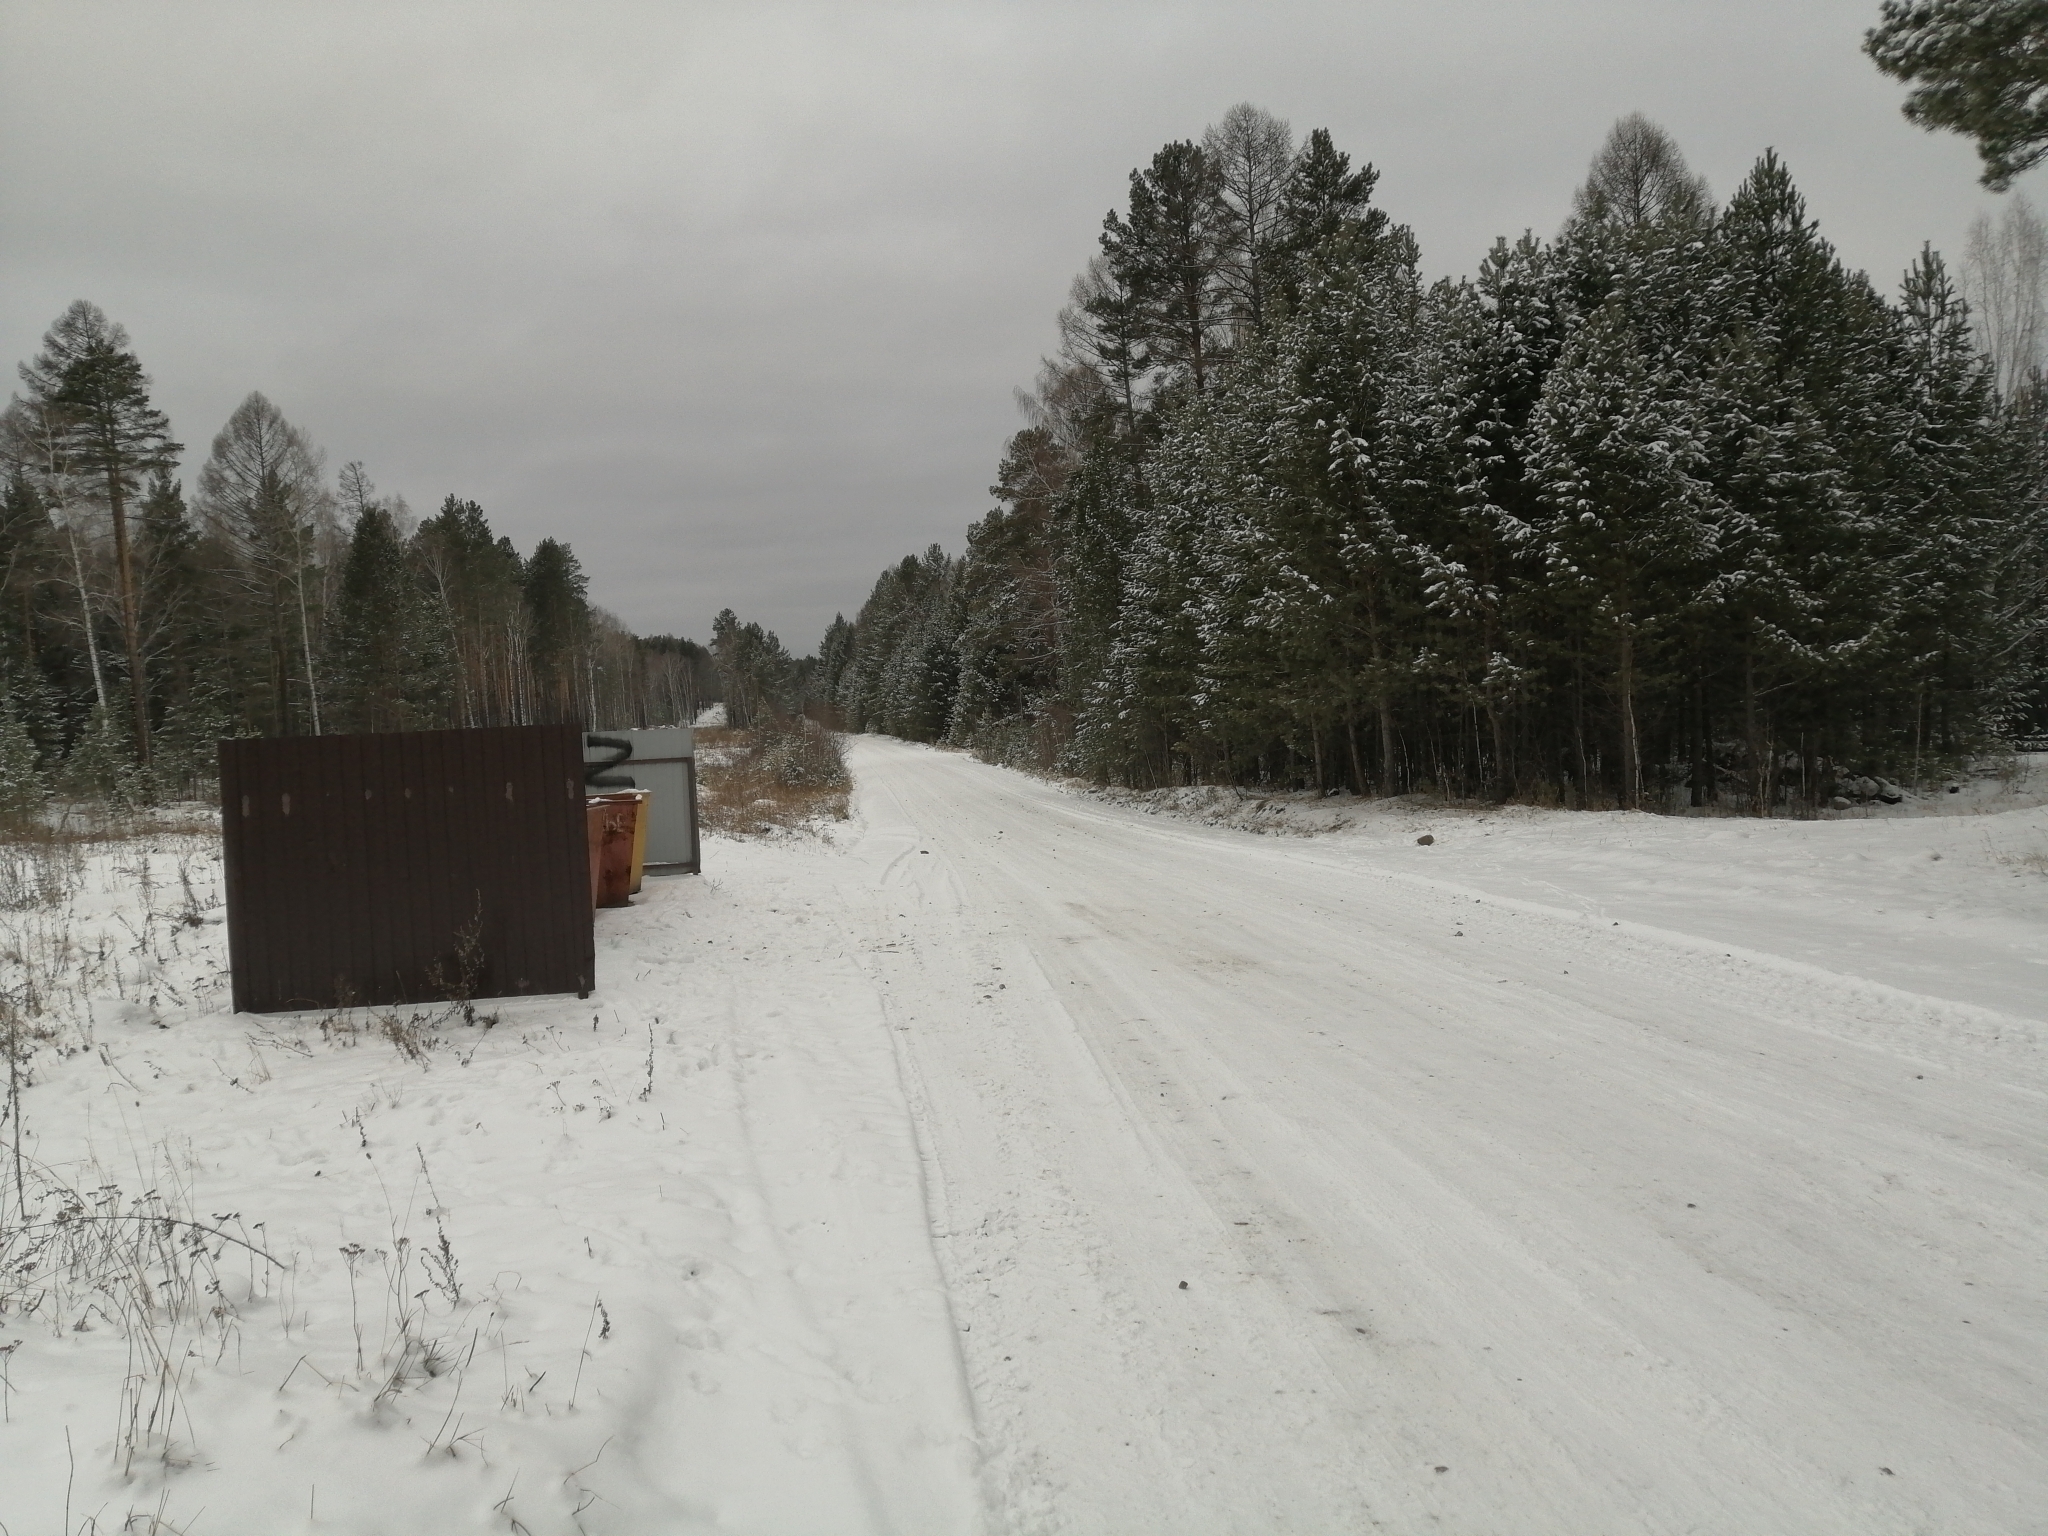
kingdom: Plantae
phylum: Tracheophyta
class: Pinopsida
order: Pinales
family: Pinaceae
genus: Pinus
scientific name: Pinus sylvestris
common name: Scots pine
